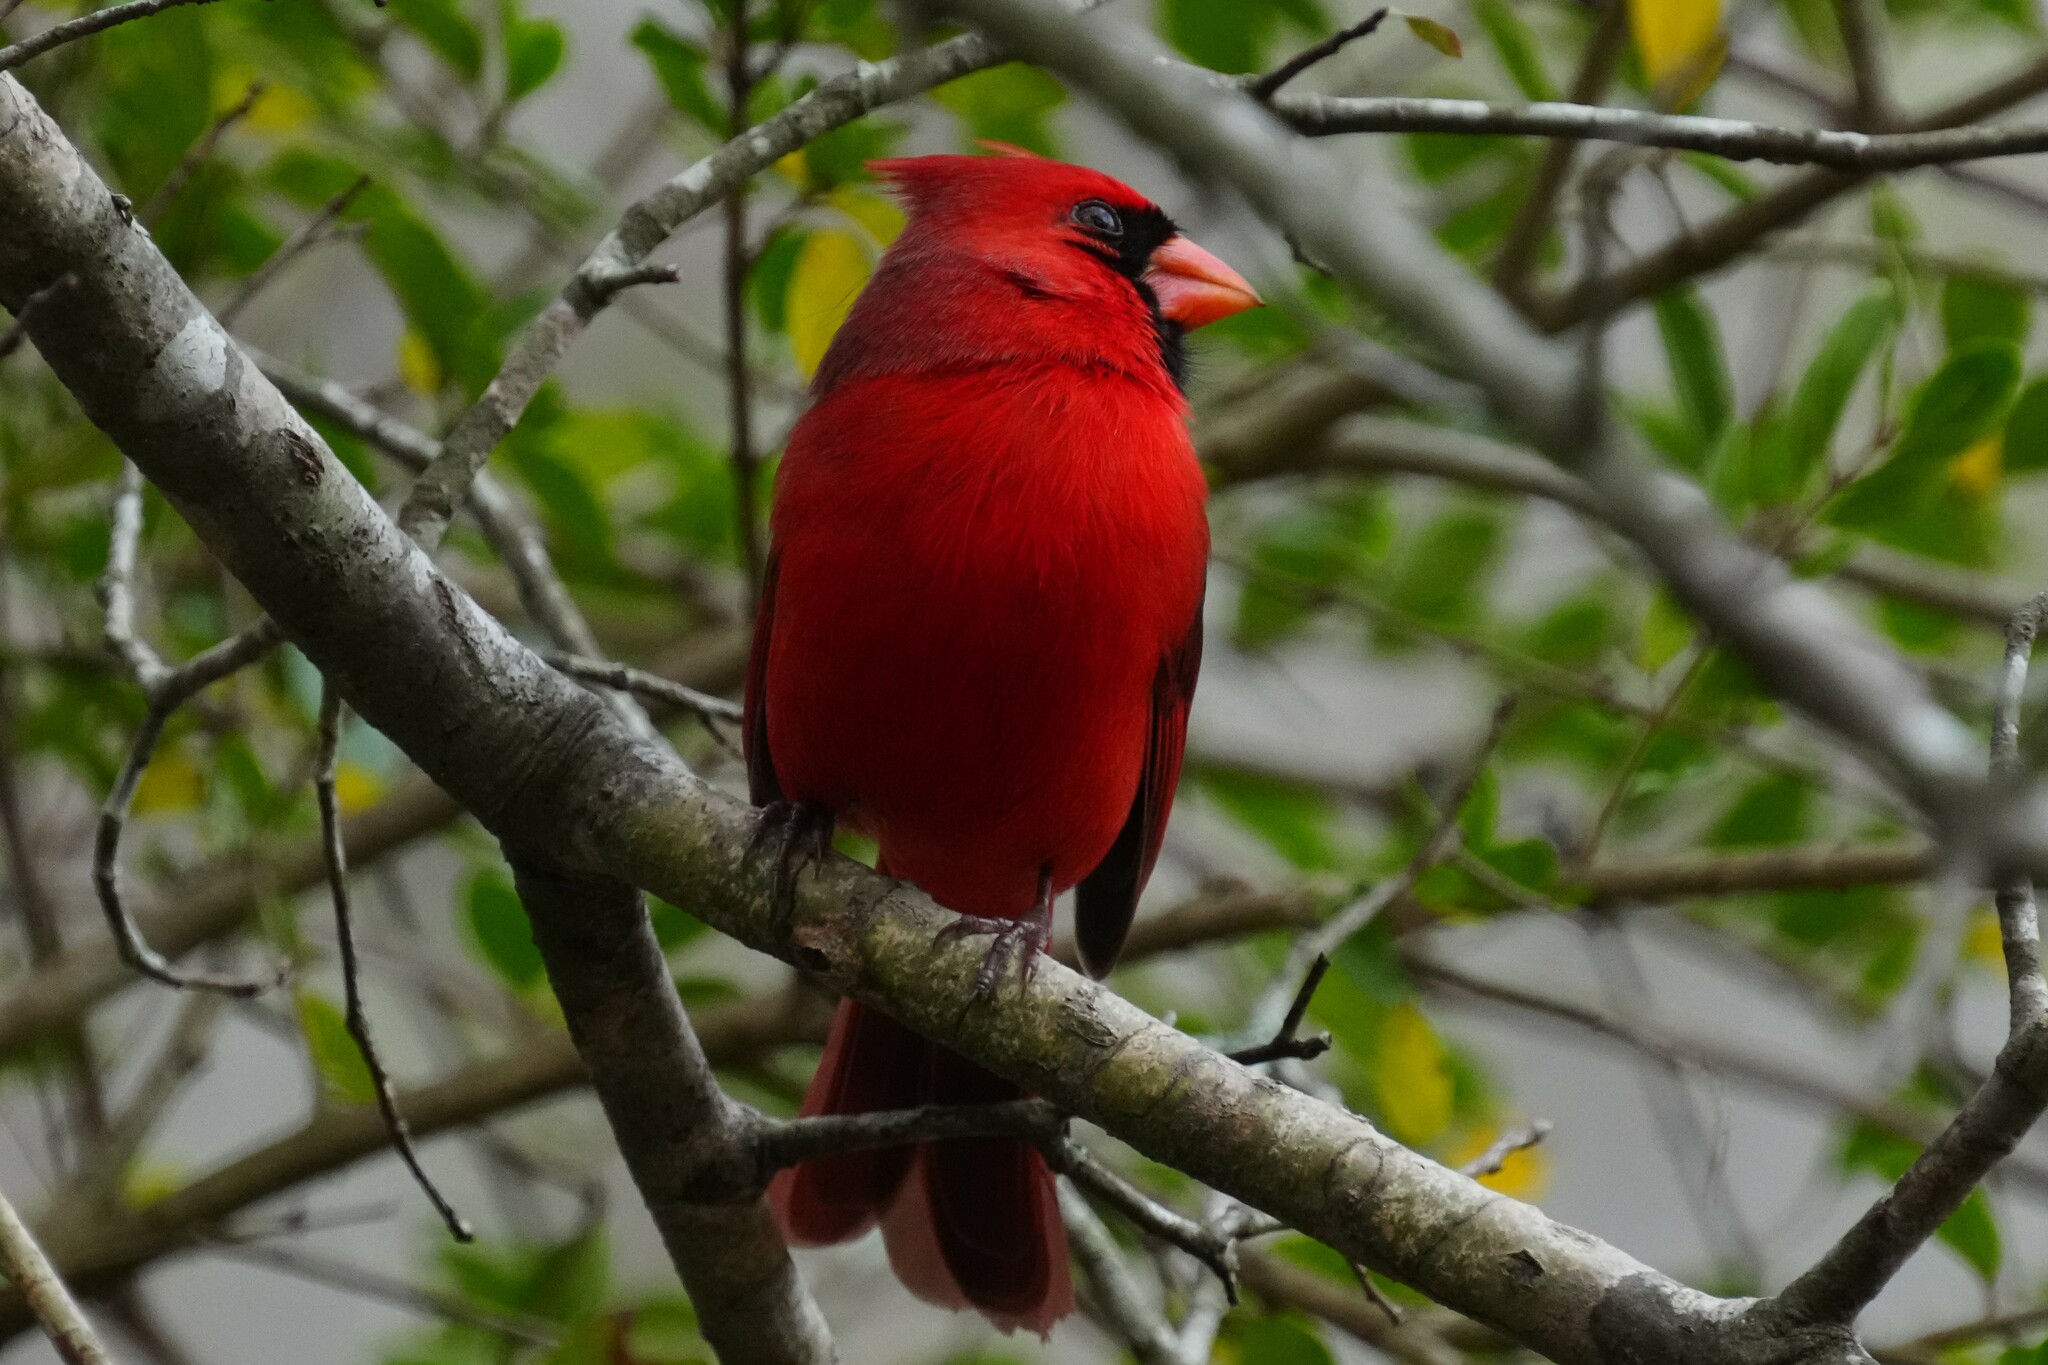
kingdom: Animalia
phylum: Chordata
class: Aves
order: Passeriformes
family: Cardinalidae
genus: Cardinalis
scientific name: Cardinalis cardinalis
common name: Northern cardinal
